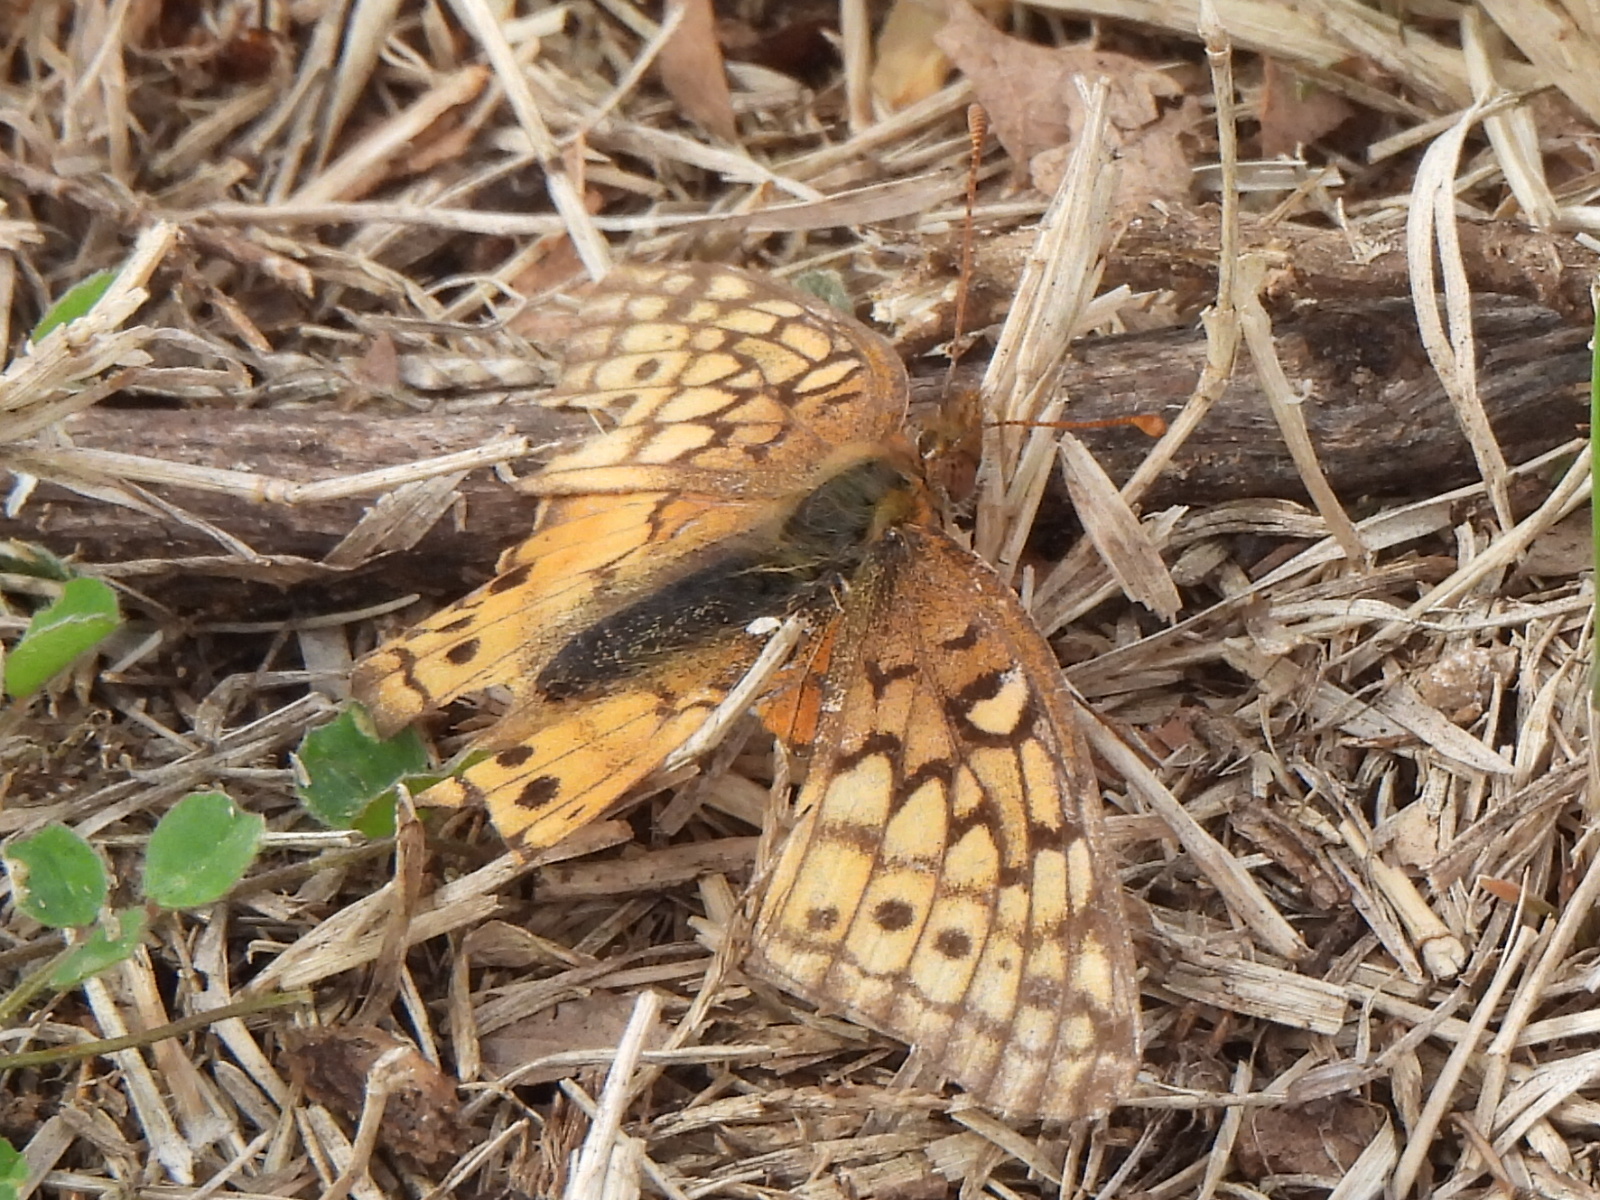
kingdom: Animalia
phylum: Arthropoda
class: Insecta
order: Lepidoptera
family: Nymphalidae
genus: Euptoieta
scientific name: Euptoieta claudia
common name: Variegated fritillary
